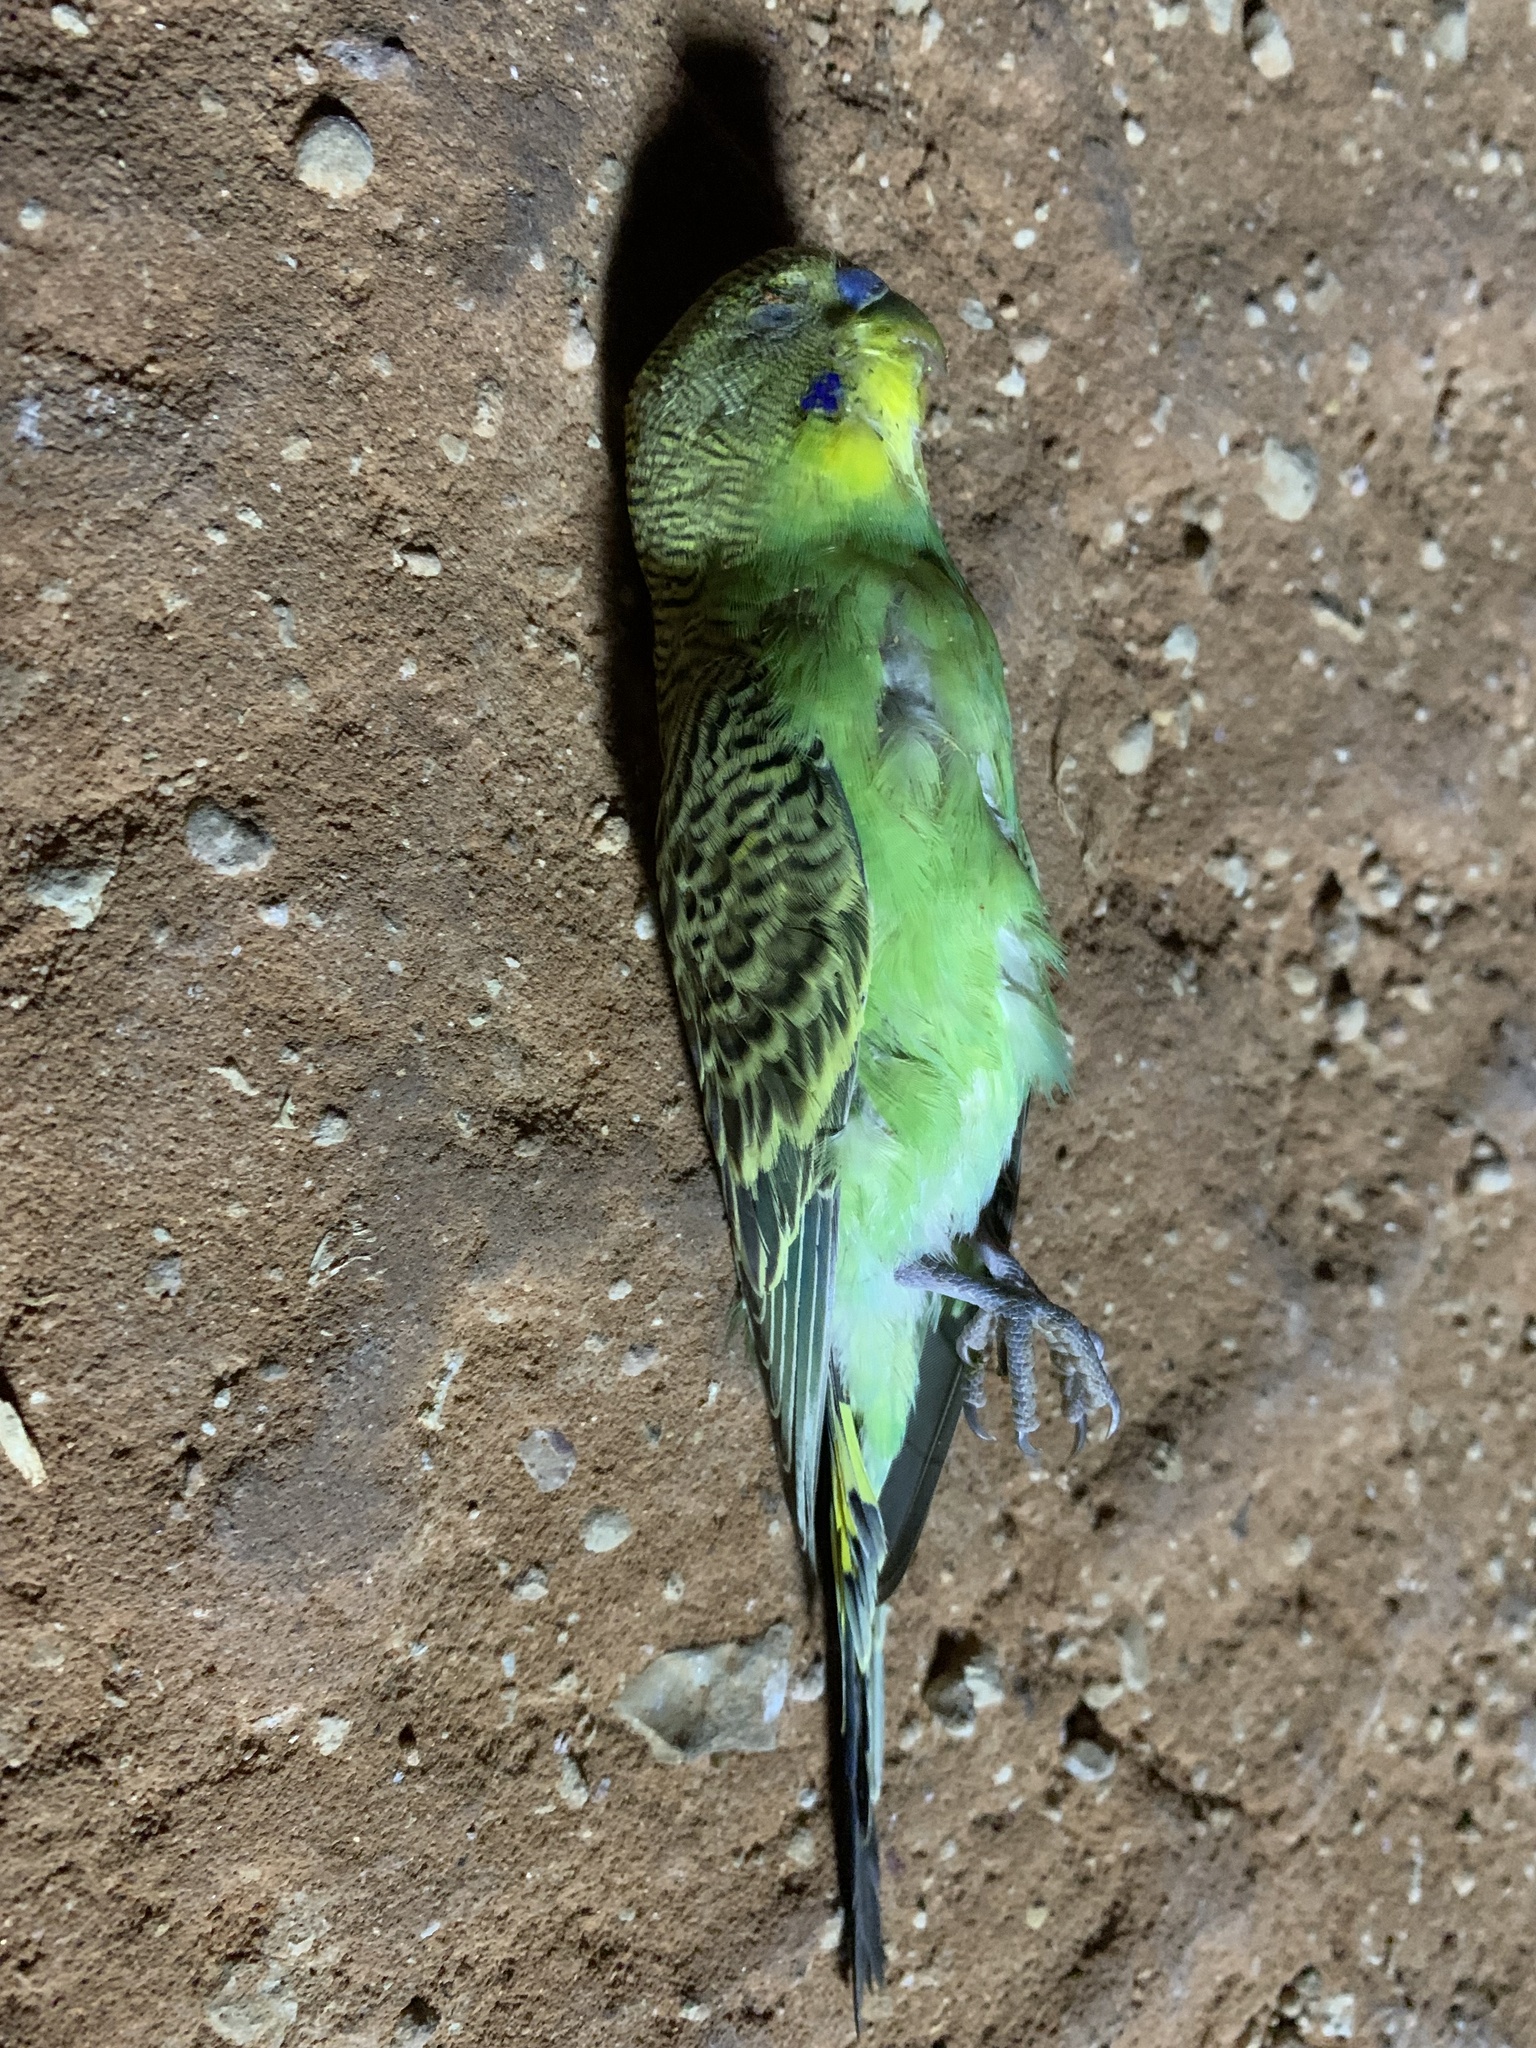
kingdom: Animalia
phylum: Chordata
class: Aves
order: Psittaciformes
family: Psittacidae
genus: Melopsittacus
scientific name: Melopsittacus undulatus
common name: Budgerigar
